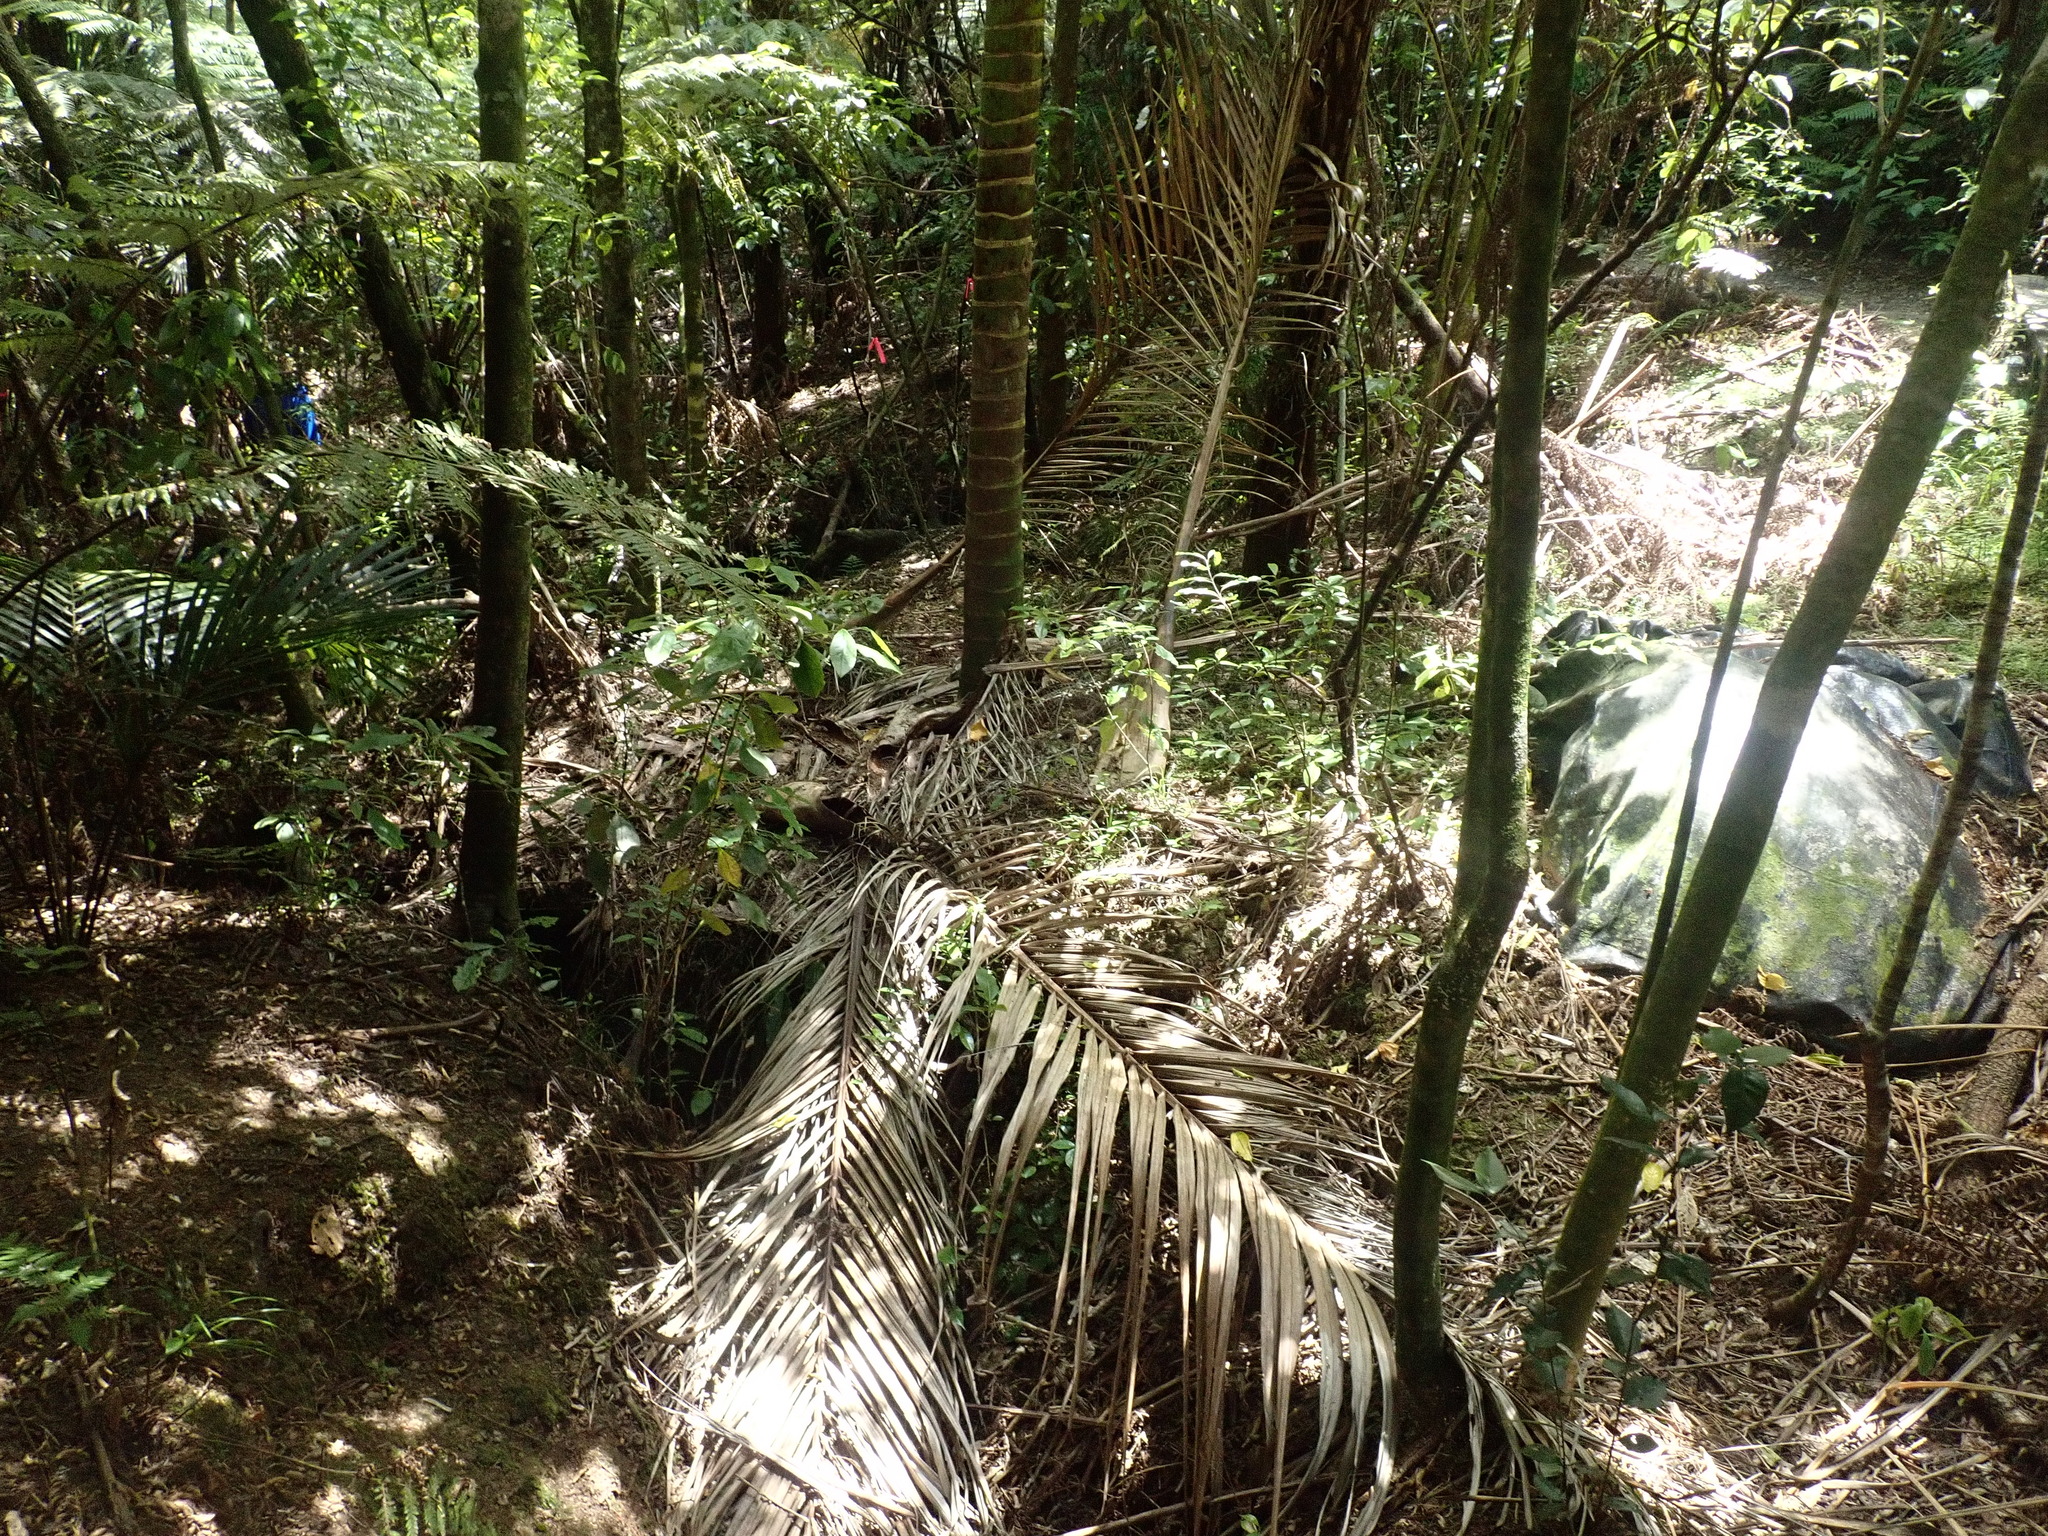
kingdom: Plantae
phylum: Tracheophyta
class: Liliopsida
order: Arecales
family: Arecaceae
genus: Rhopalostylis
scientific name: Rhopalostylis sapida
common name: Feather-duster palm
